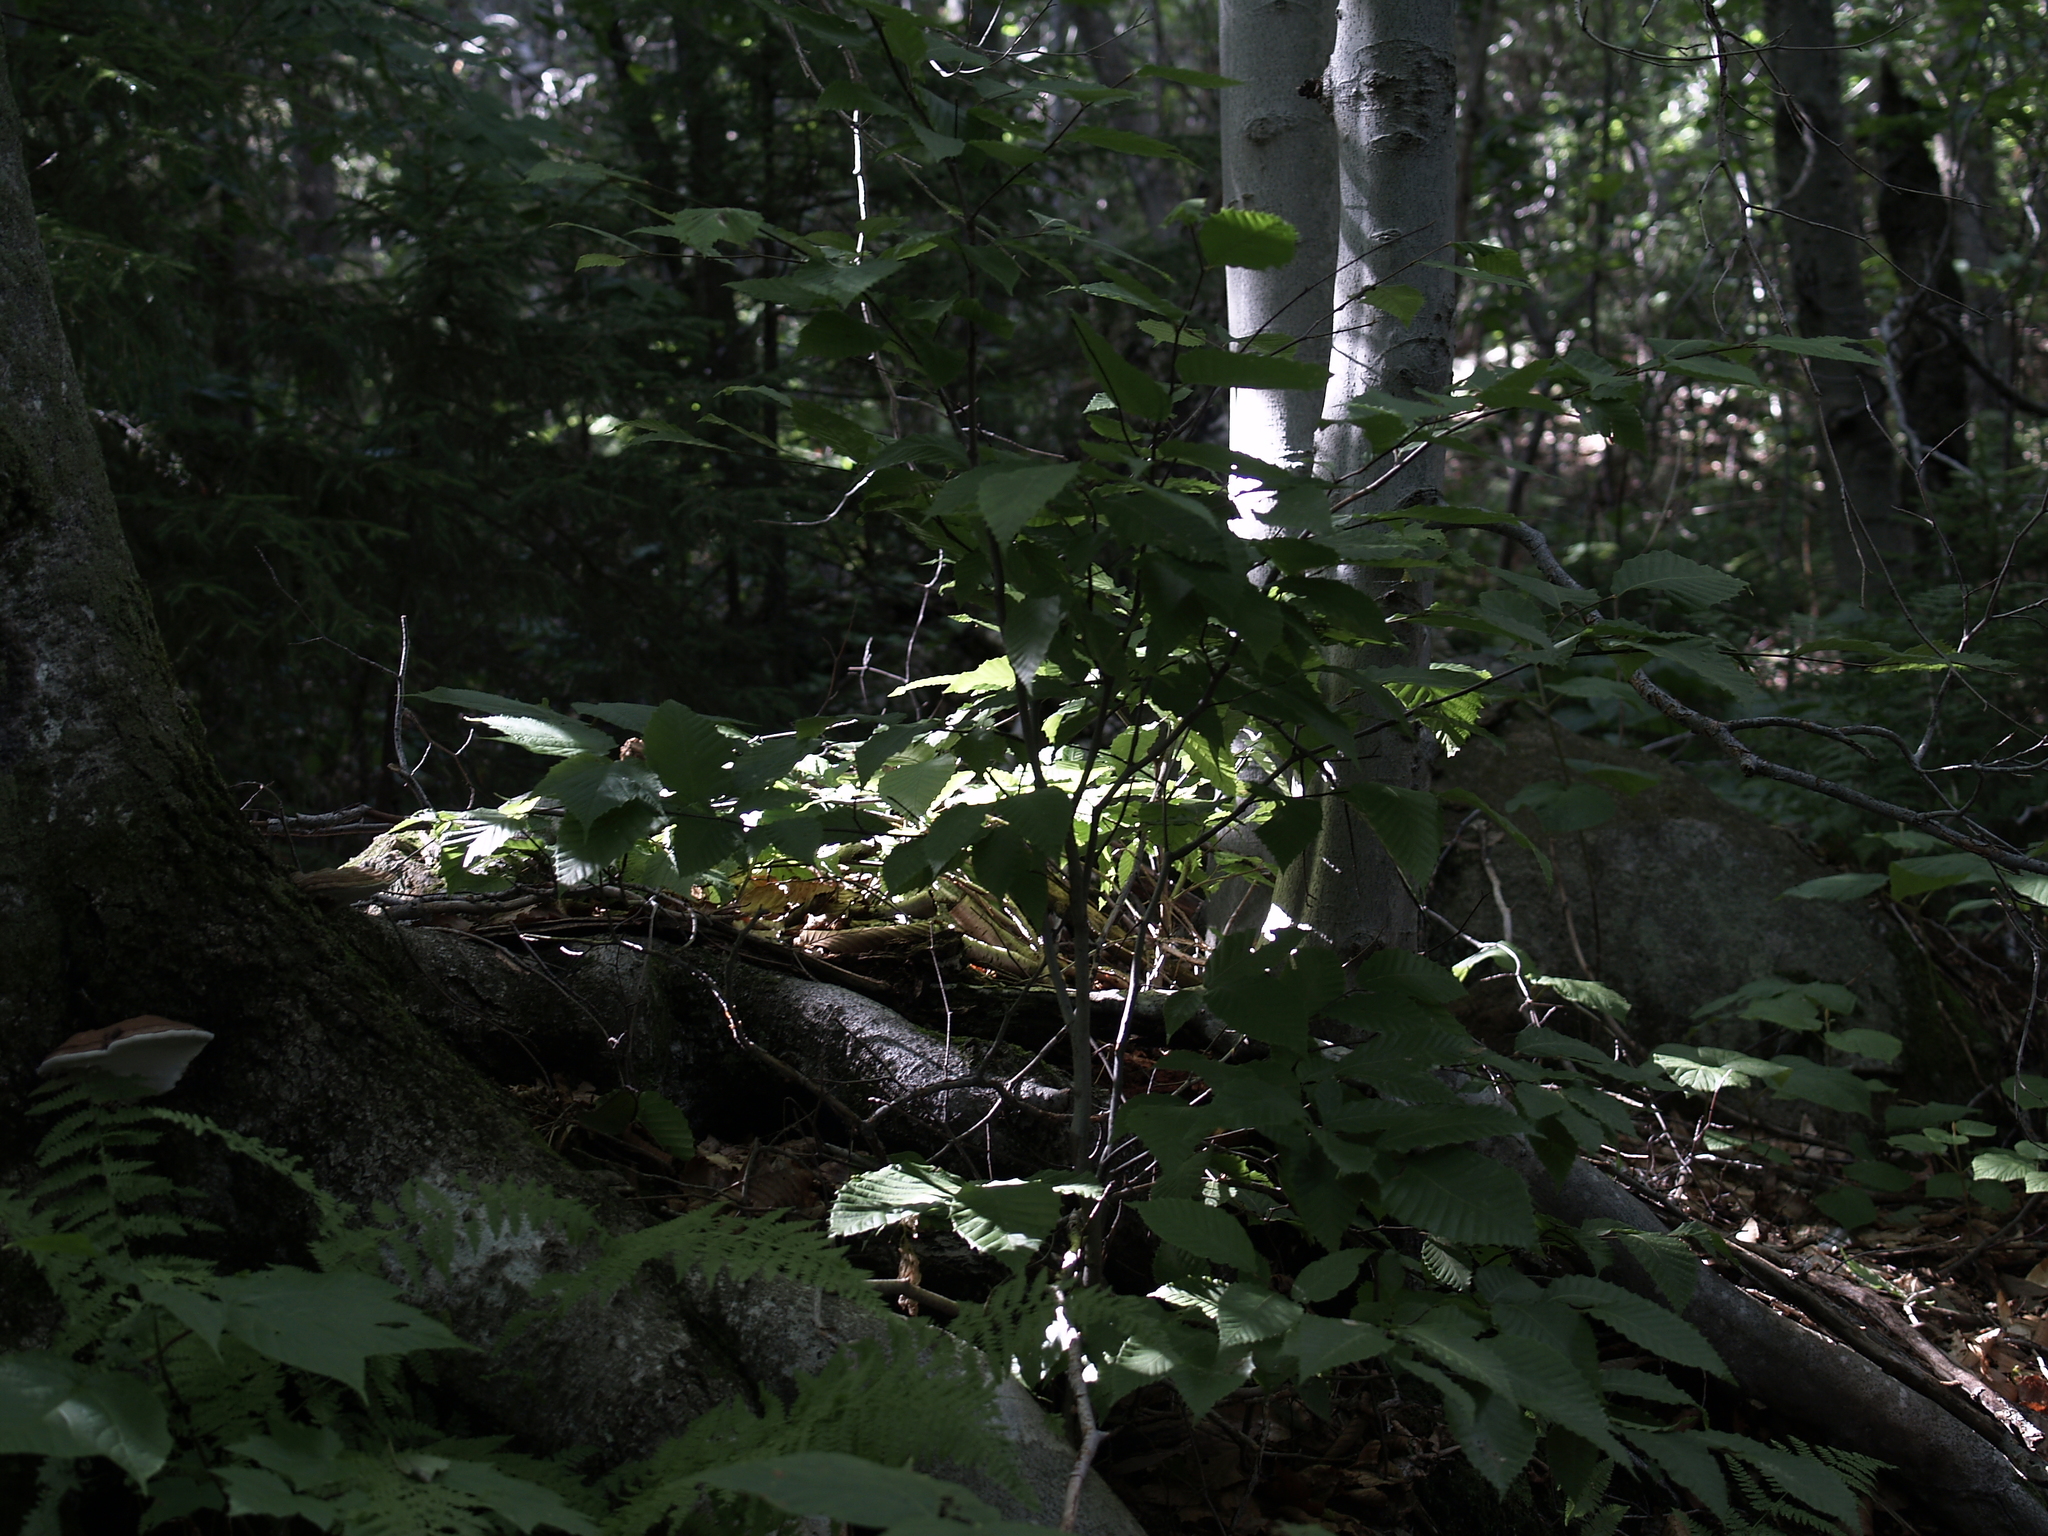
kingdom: Plantae
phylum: Tracheophyta
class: Magnoliopsida
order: Fagales
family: Fagaceae
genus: Fagus
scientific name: Fagus grandifolia
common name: American beech
